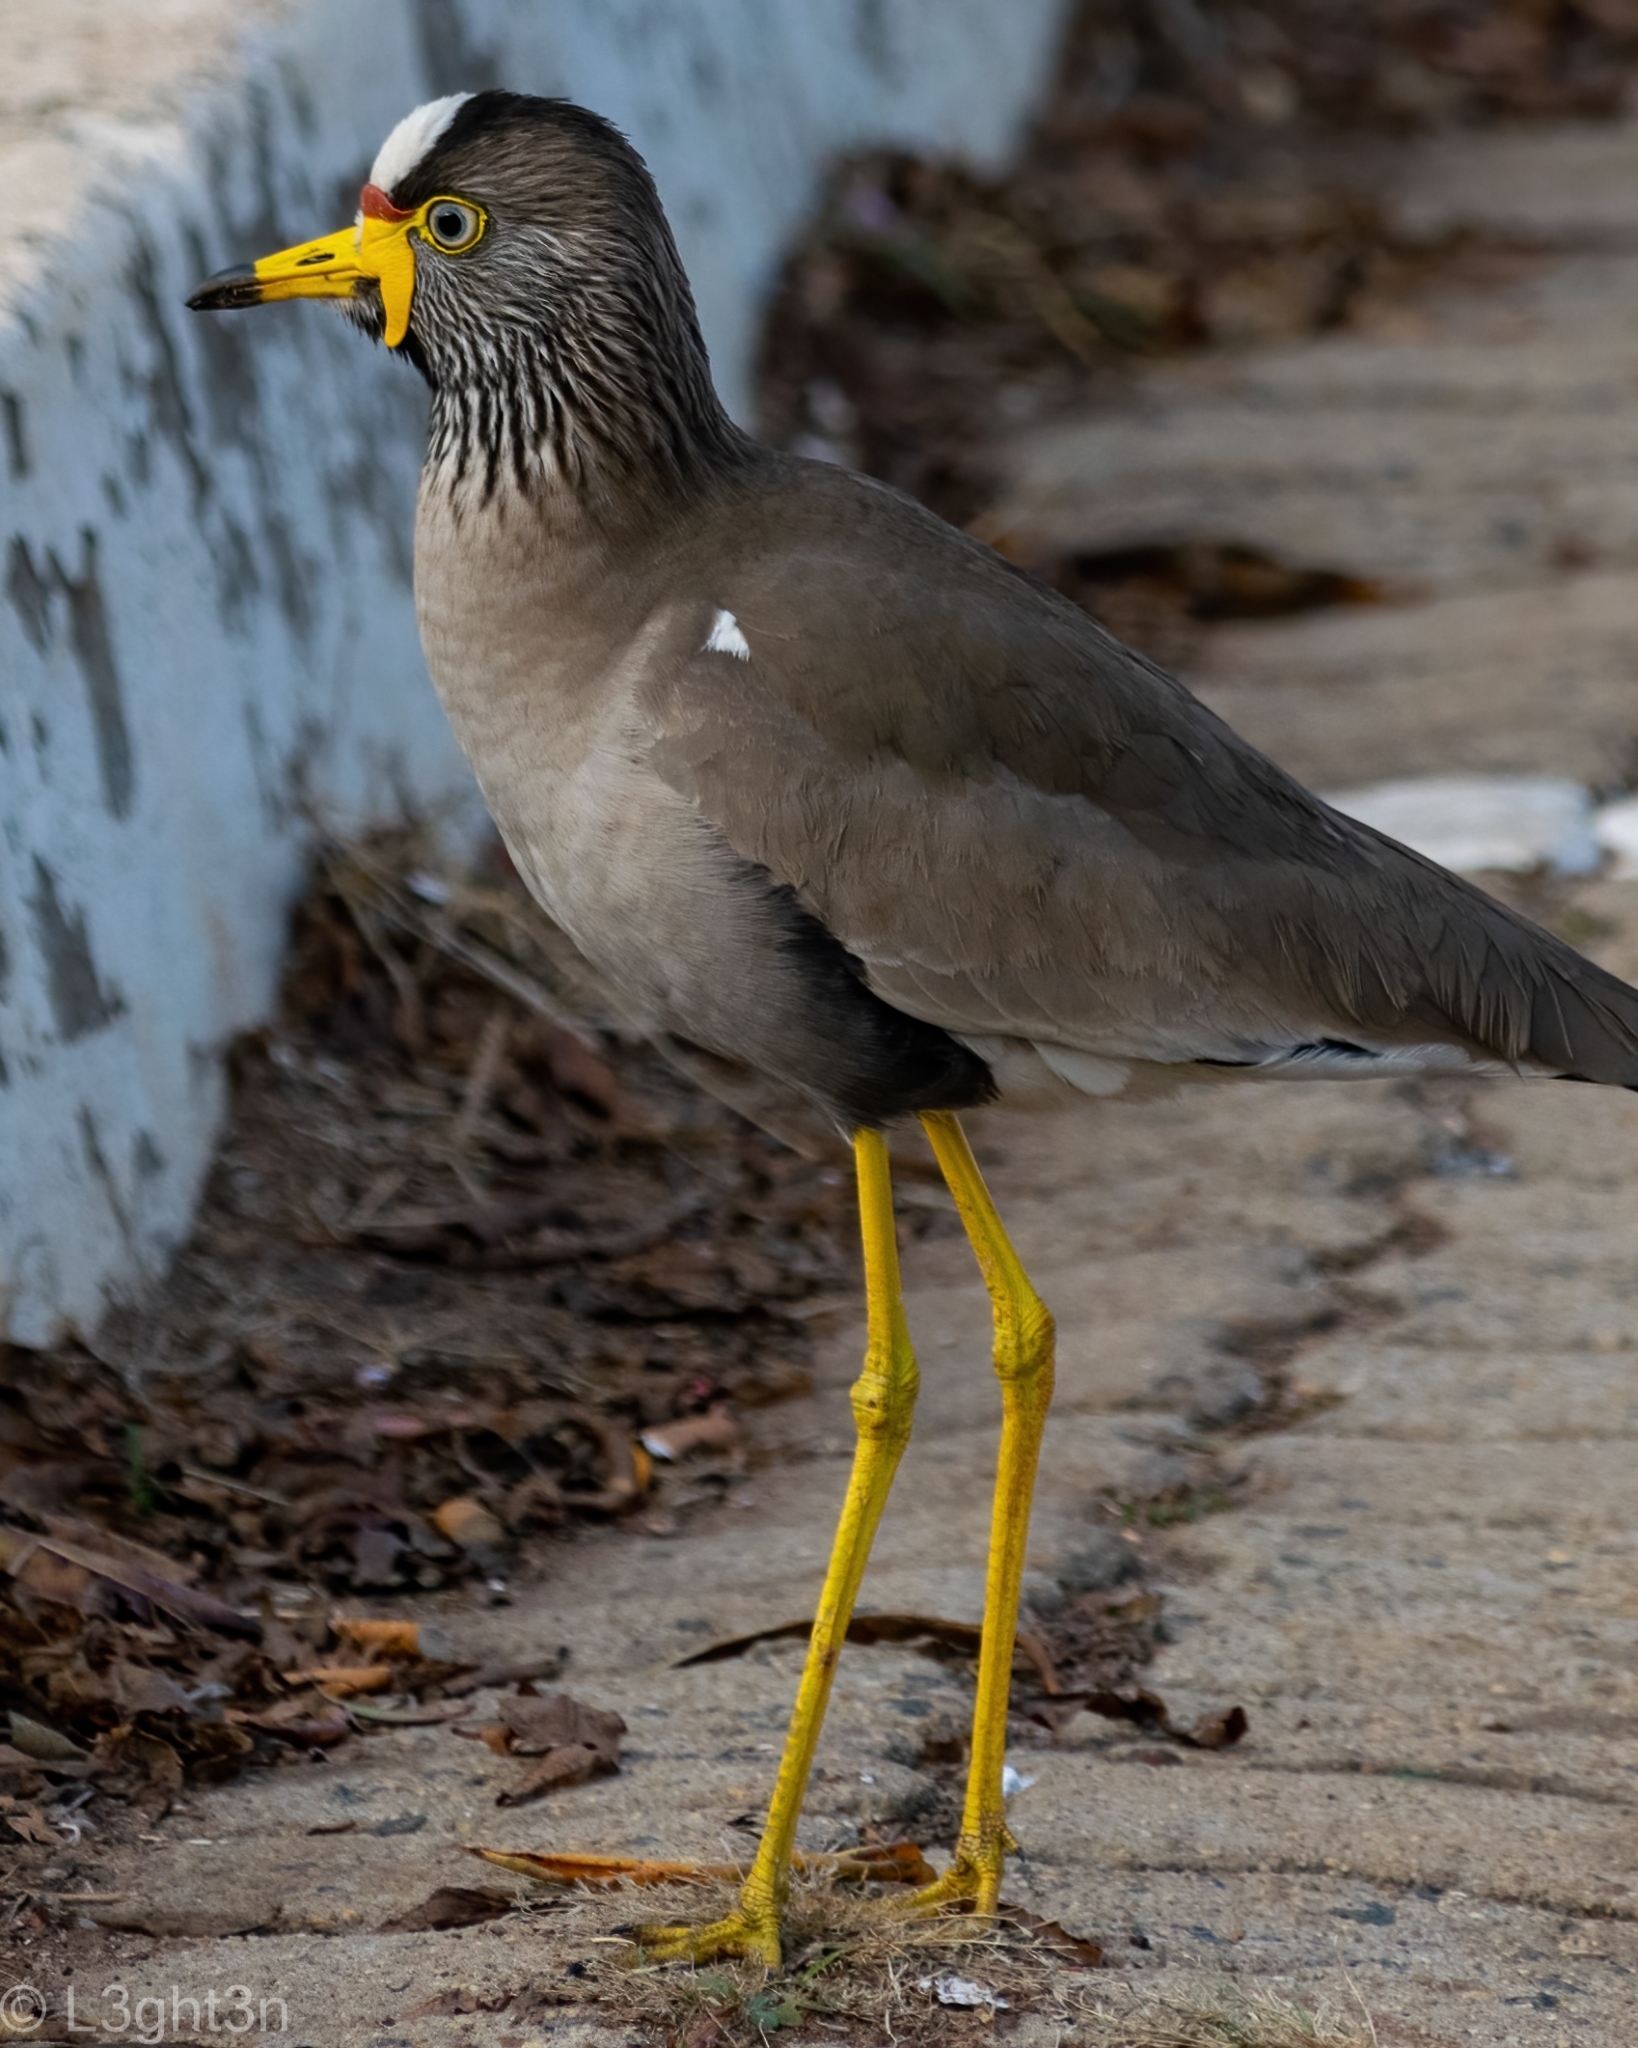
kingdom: Animalia
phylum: Chordata
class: Aves
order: Charadriiformes
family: Charadriidae
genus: Vanellus
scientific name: Vanellus senegallus
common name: African wattled lapwing
